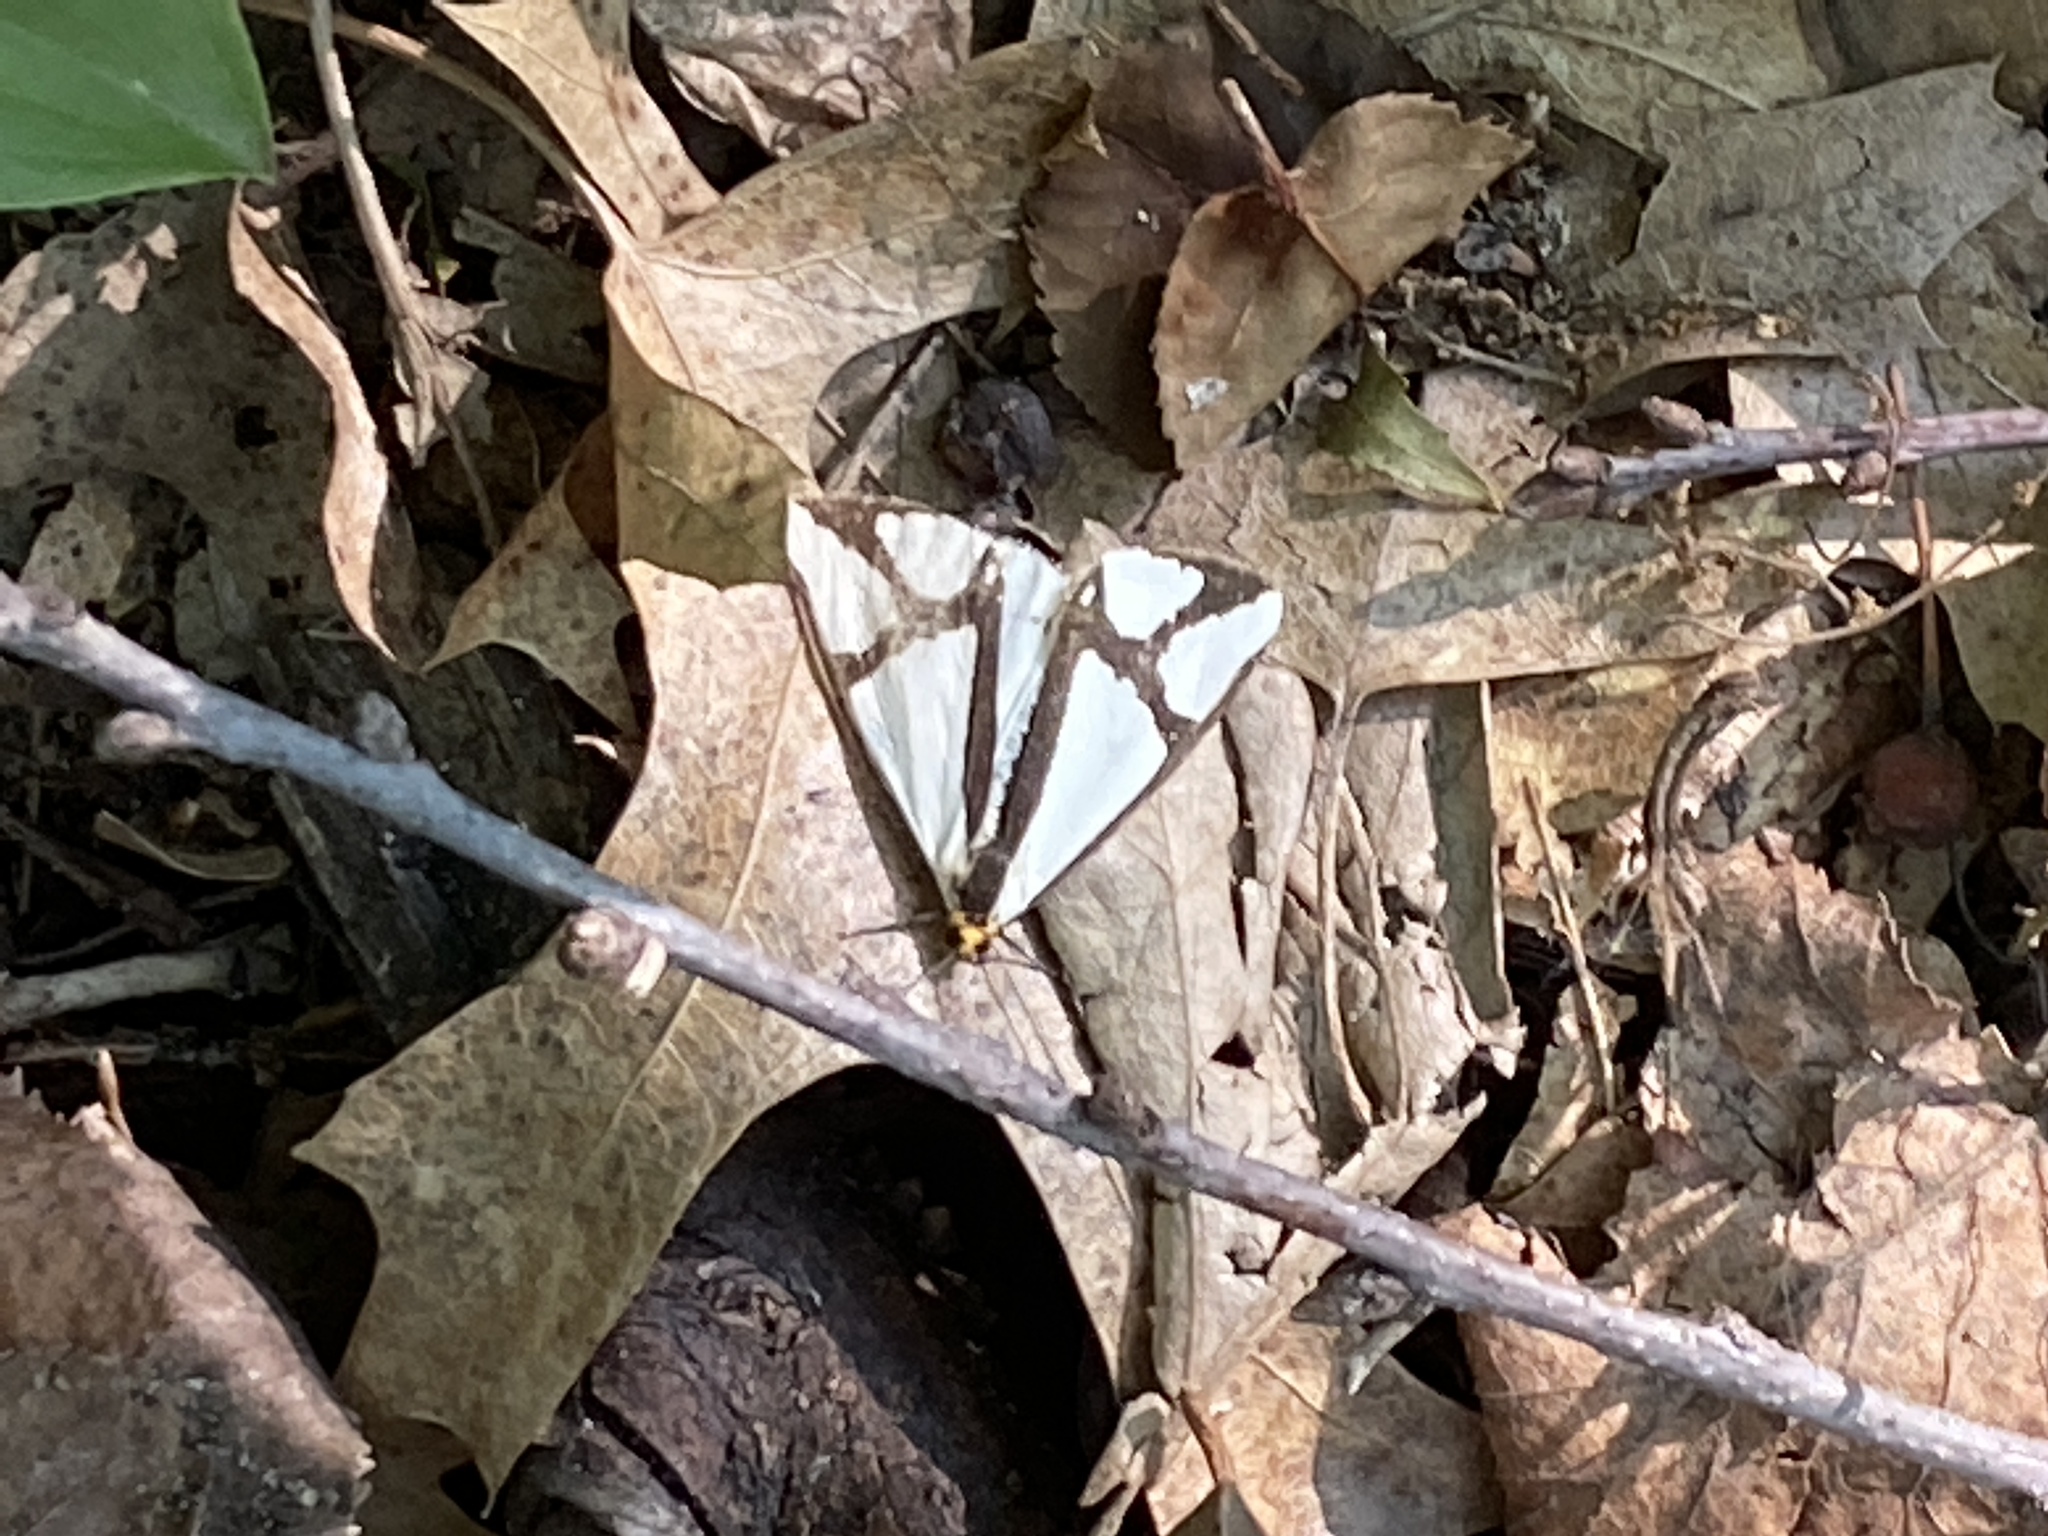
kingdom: Animalia
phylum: Arthropoda
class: Insecta
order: Lepidoptera
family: Erebidae
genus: Haploa
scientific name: Haploa contigua
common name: Neighbor moth
